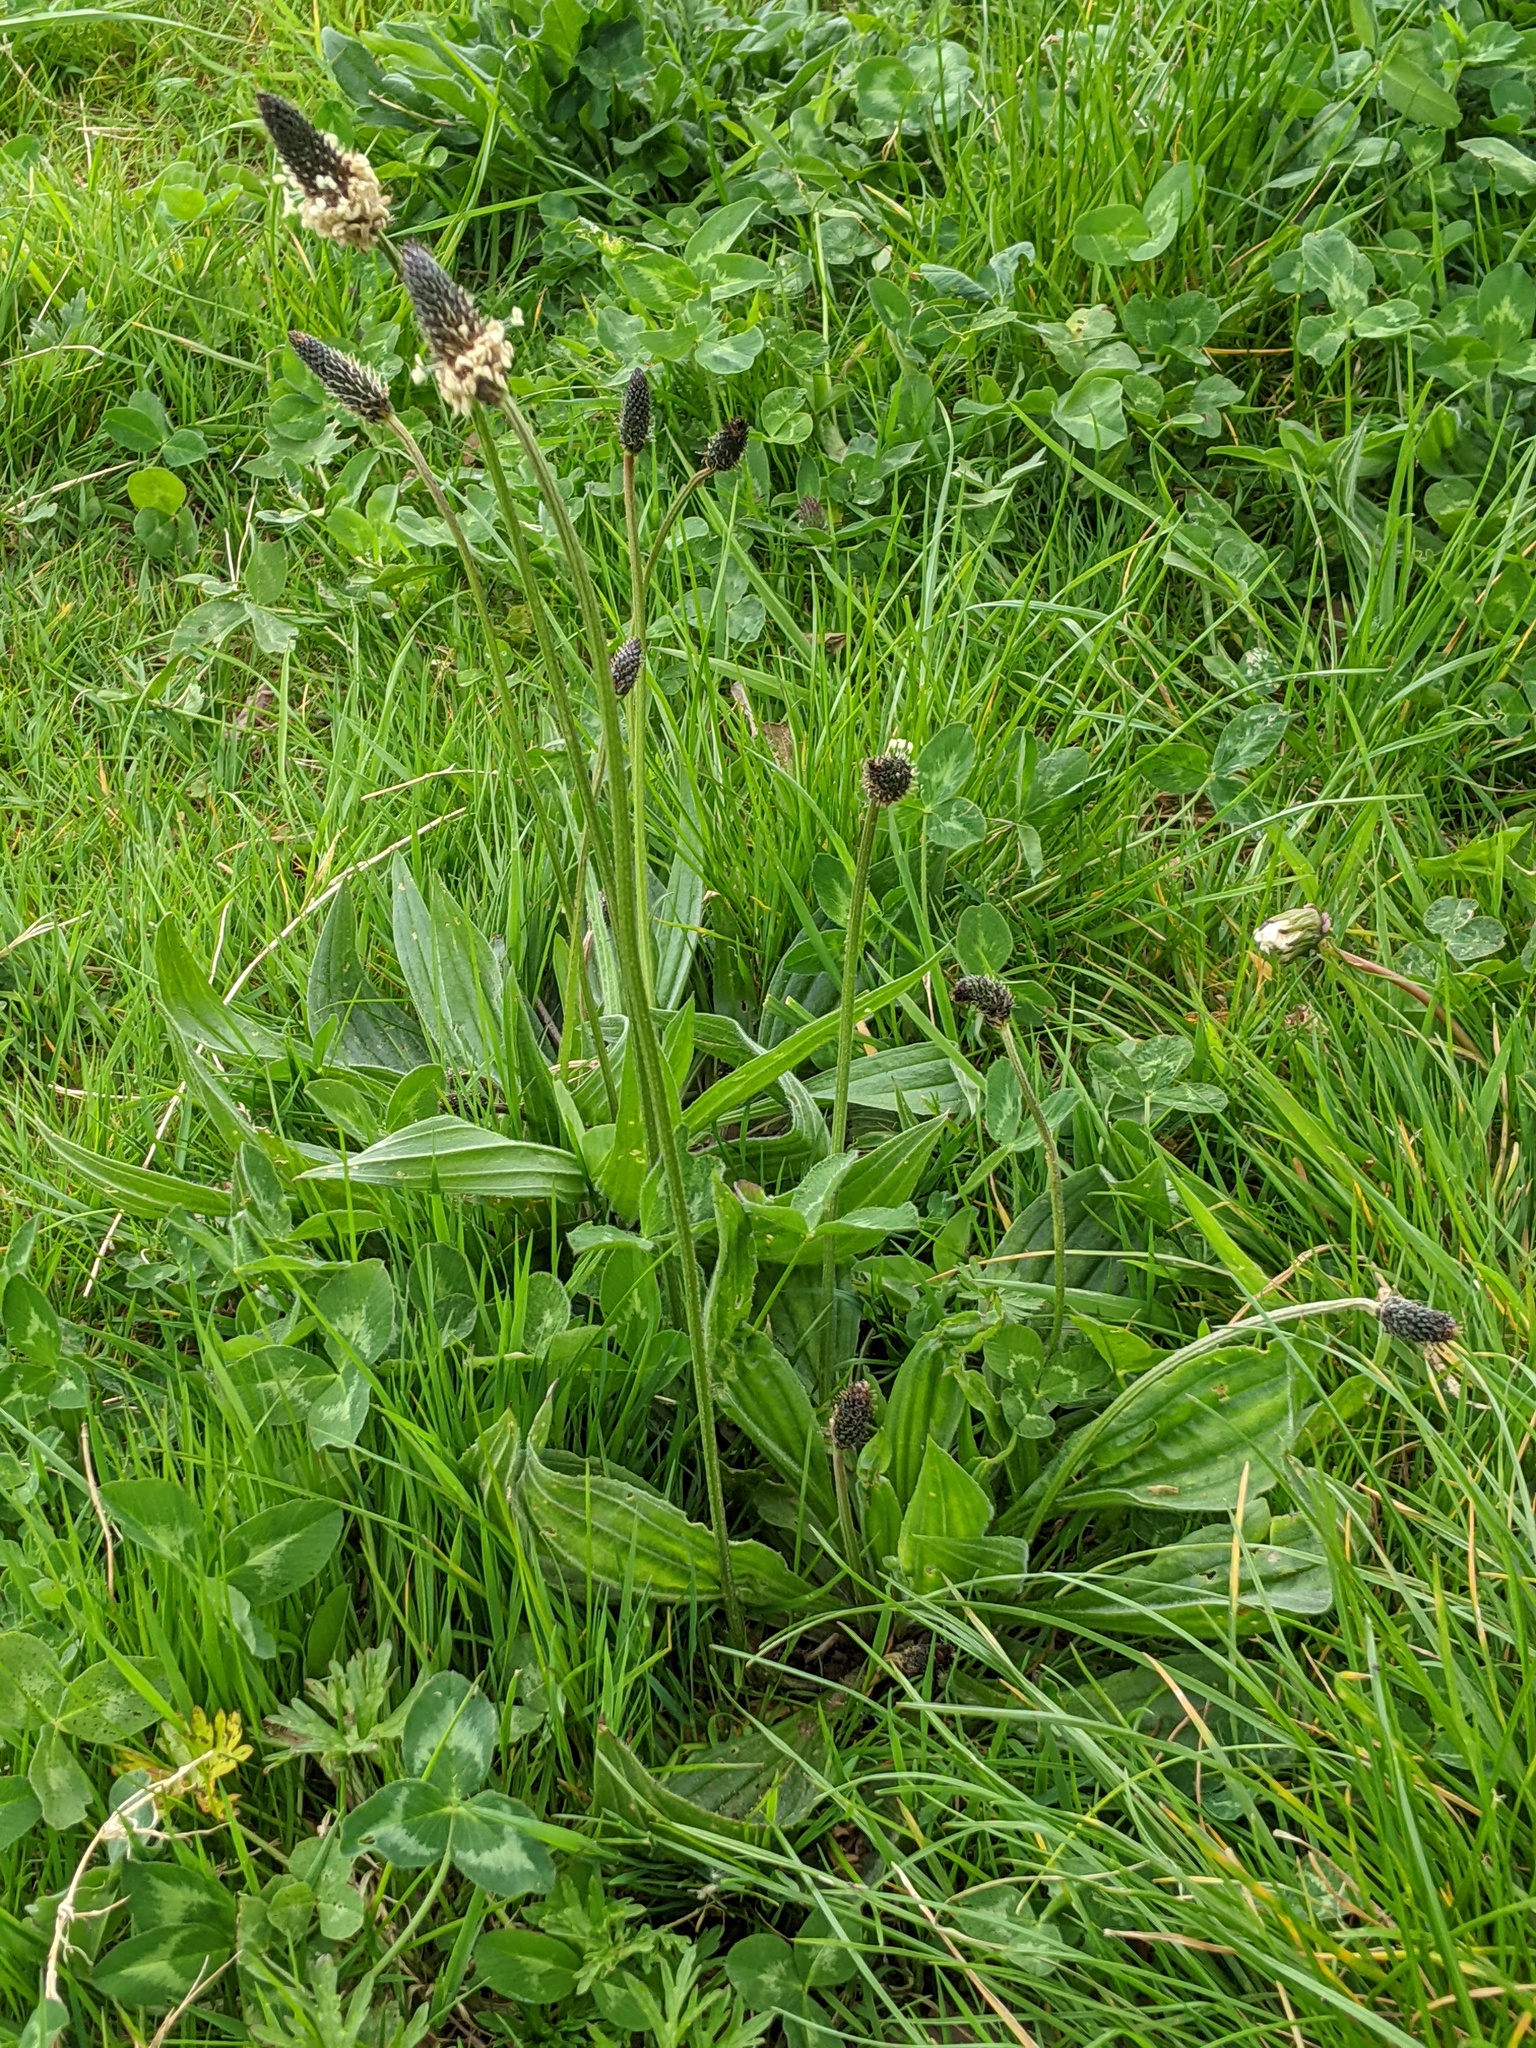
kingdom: Plantae
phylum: Tracheophyta
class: Magnoliopsida
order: Lamiales
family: Plantaginaceae
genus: Plantago
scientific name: Plantago lanceolata
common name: Ribwort plantain
